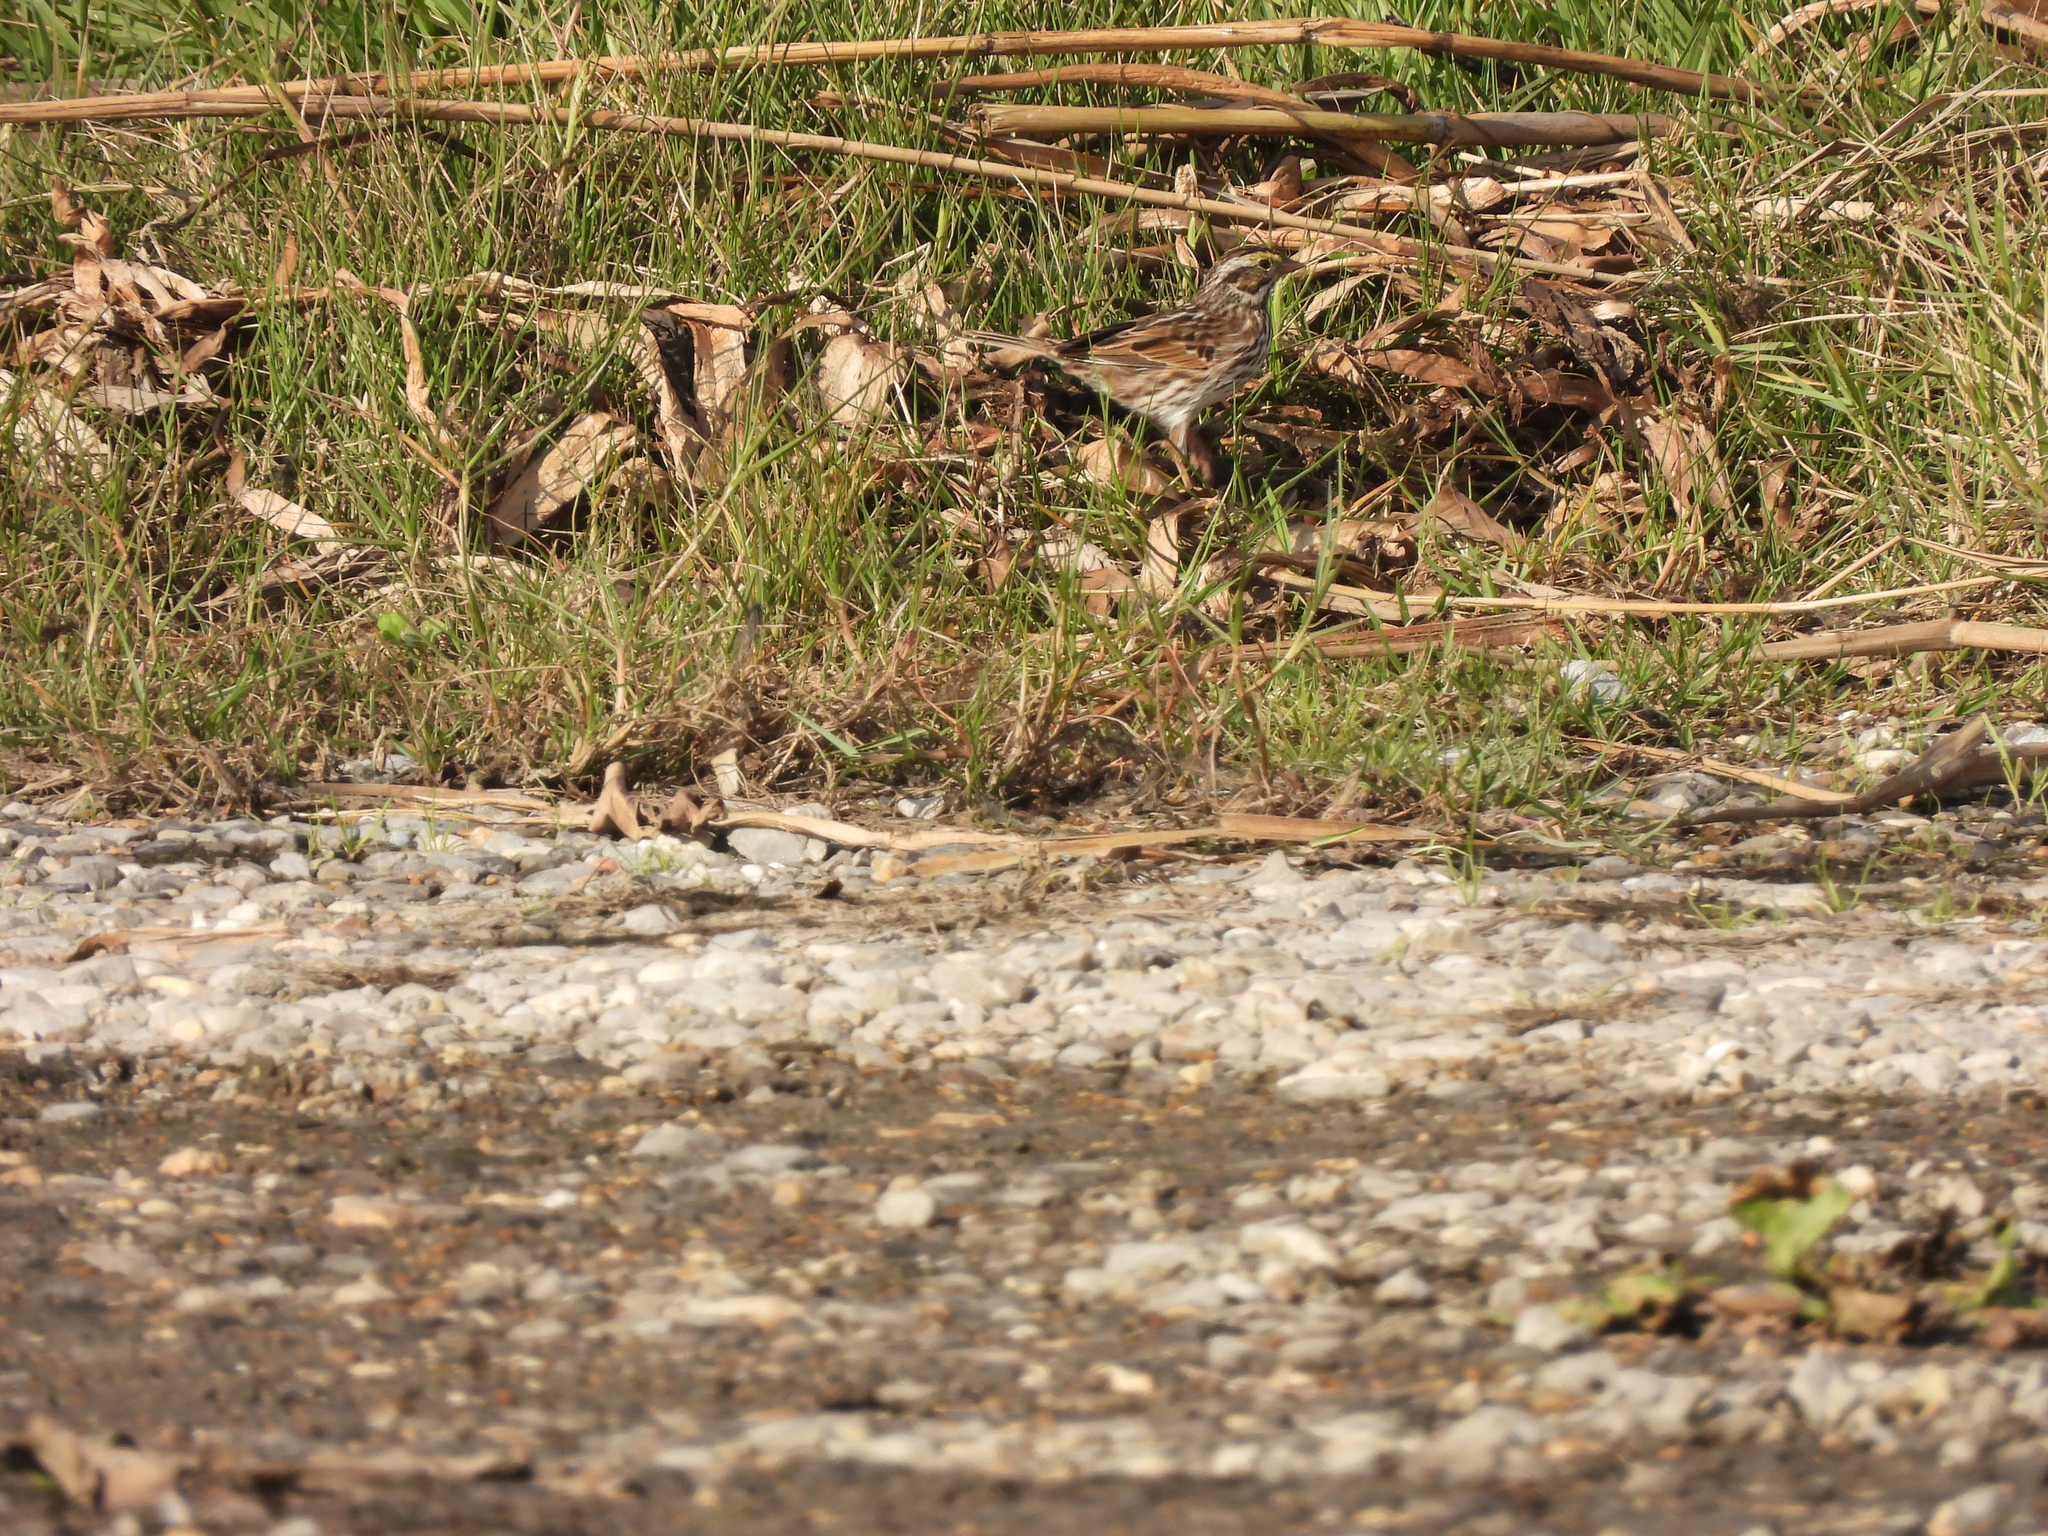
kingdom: Animalia
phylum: Chordata
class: Aves
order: Passeriformes
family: Passerellidae
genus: Passerculus
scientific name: Passerculus sandwichensis
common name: Savannah sparrow
